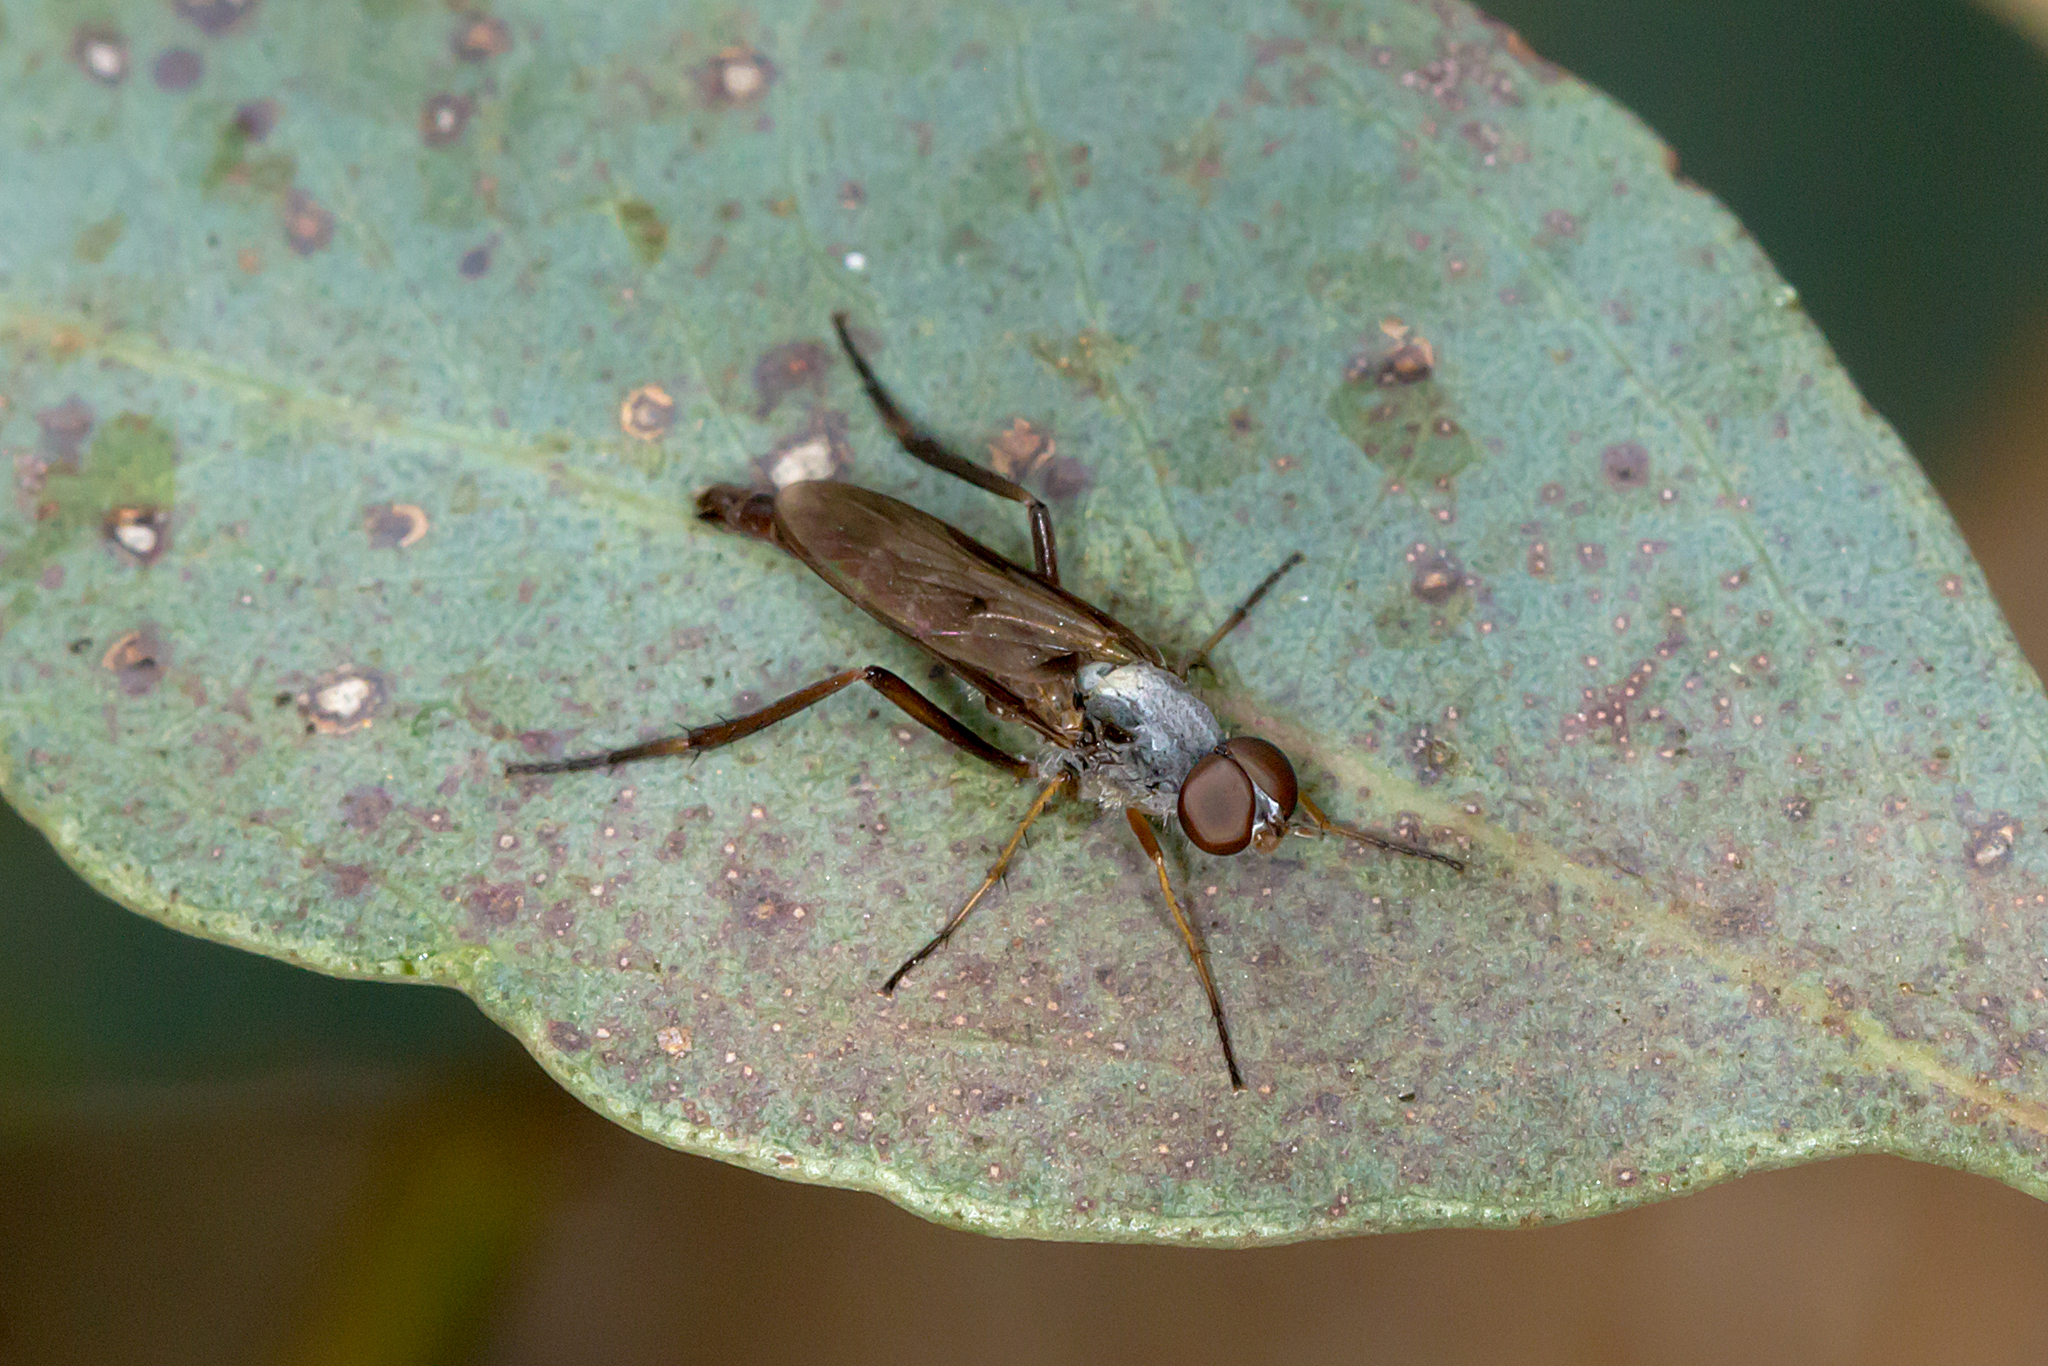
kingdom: Animalia
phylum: Arthropoda
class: Insecta
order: Diptera
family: Therevidae
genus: Taenogerella
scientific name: Taenogerella elizabethae
